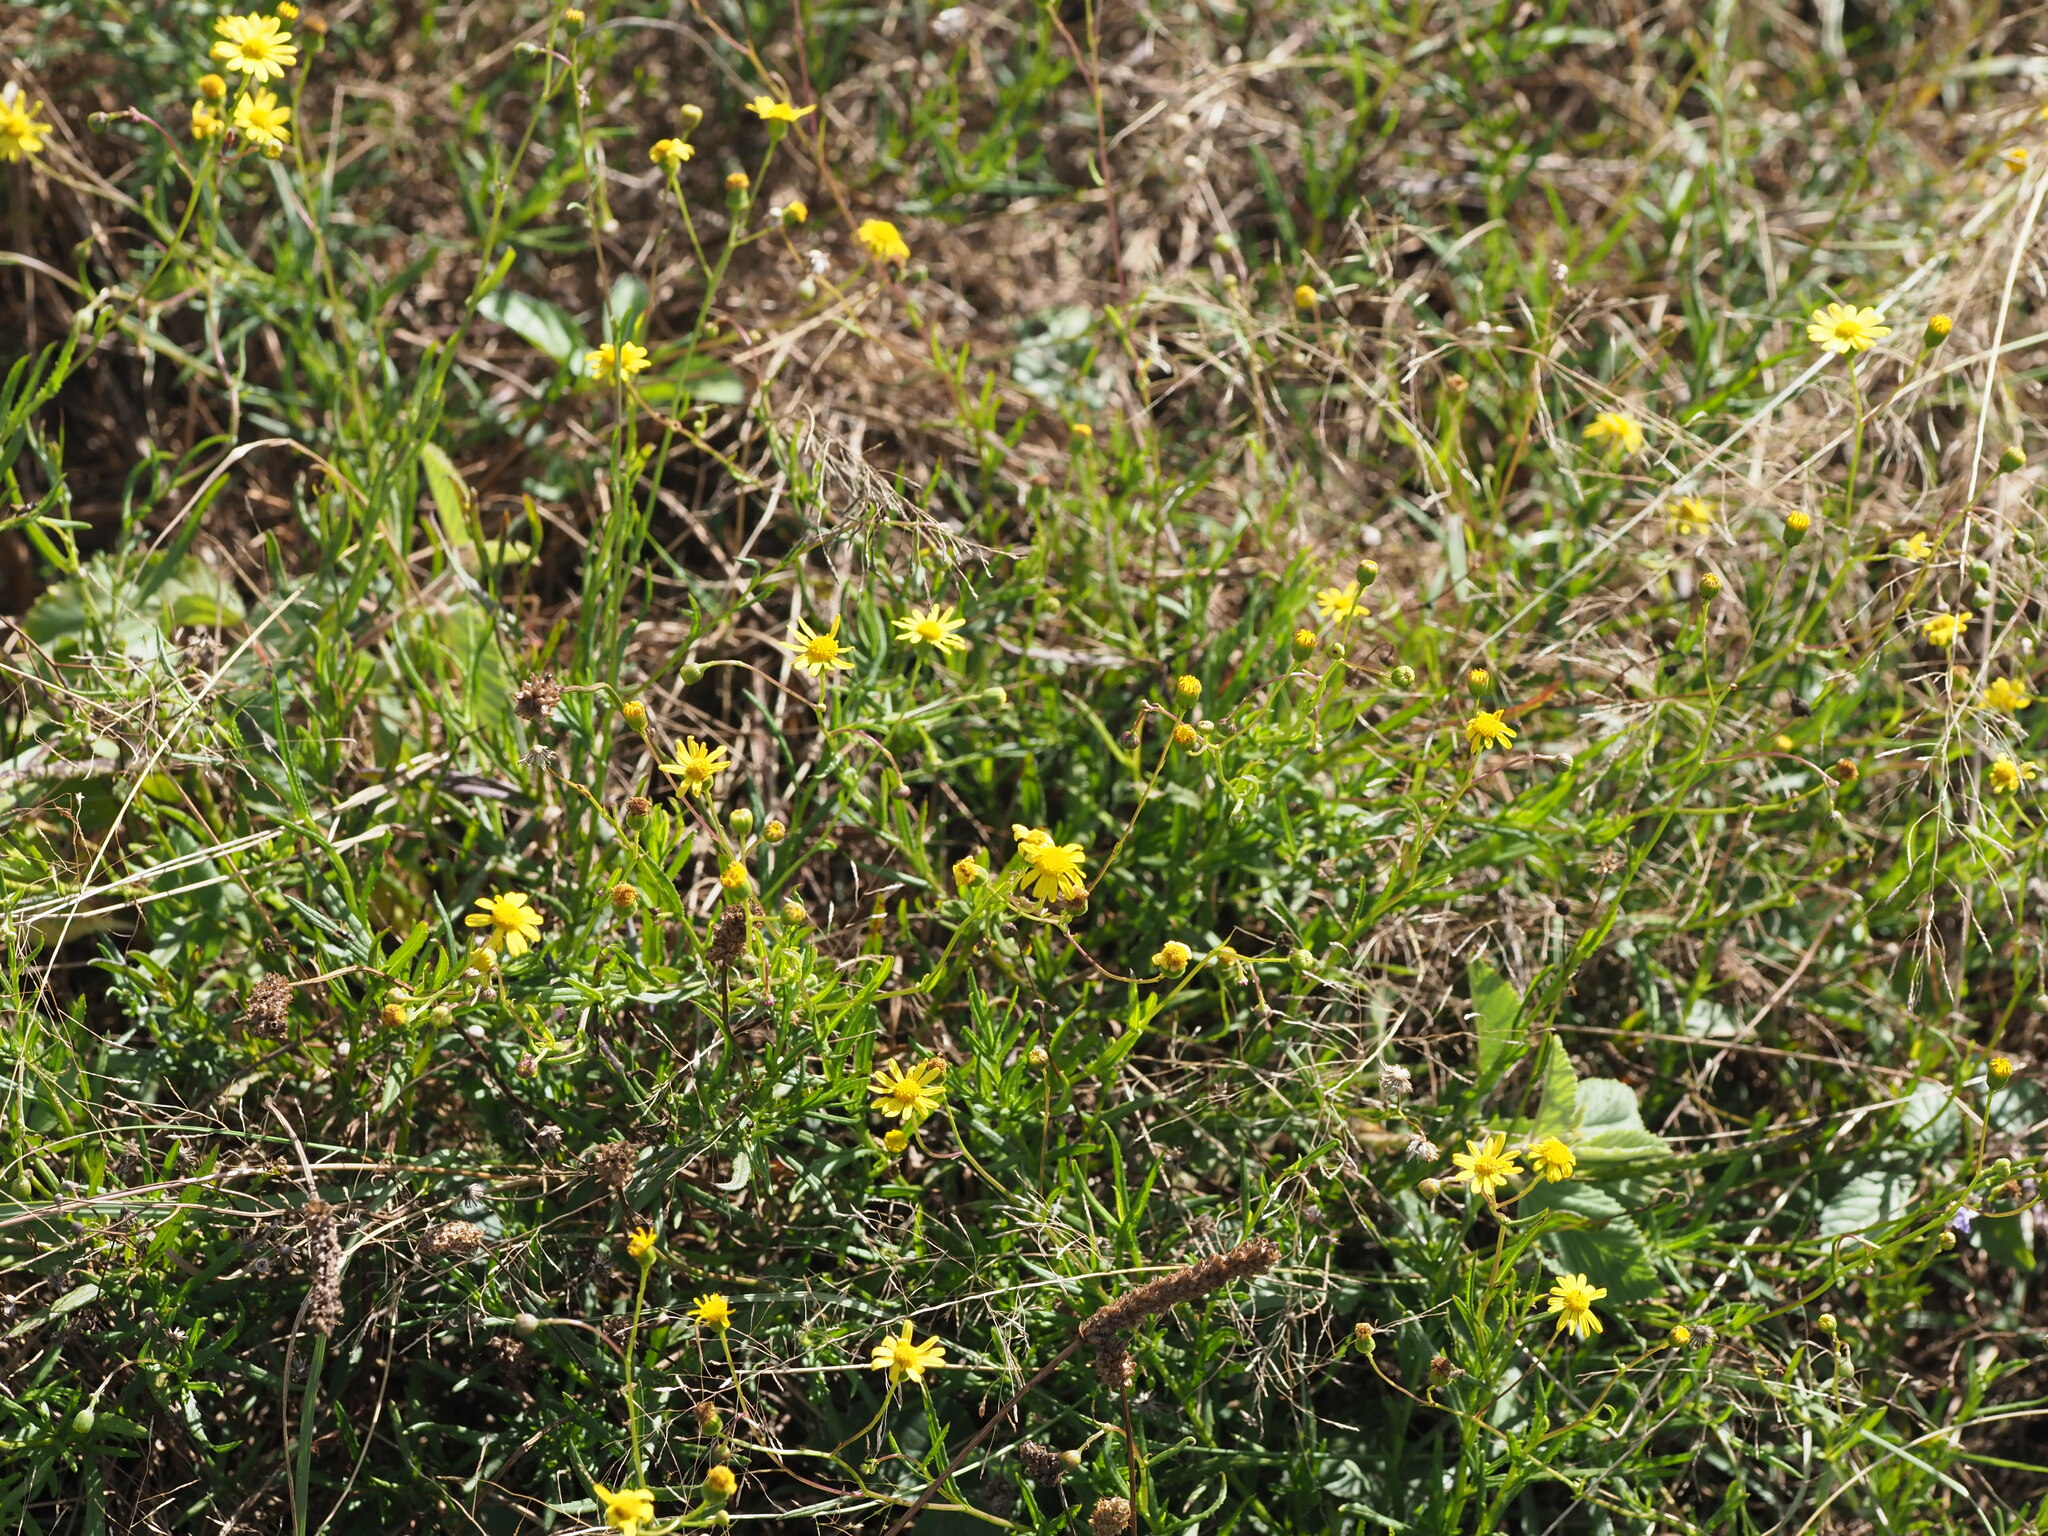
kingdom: Plantae
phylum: Tracheophyta
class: Magnoliopsida
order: Asterales
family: Asteraceae
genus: Senecio
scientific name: Senecio madagascariensis
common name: Madagascar ragwort
